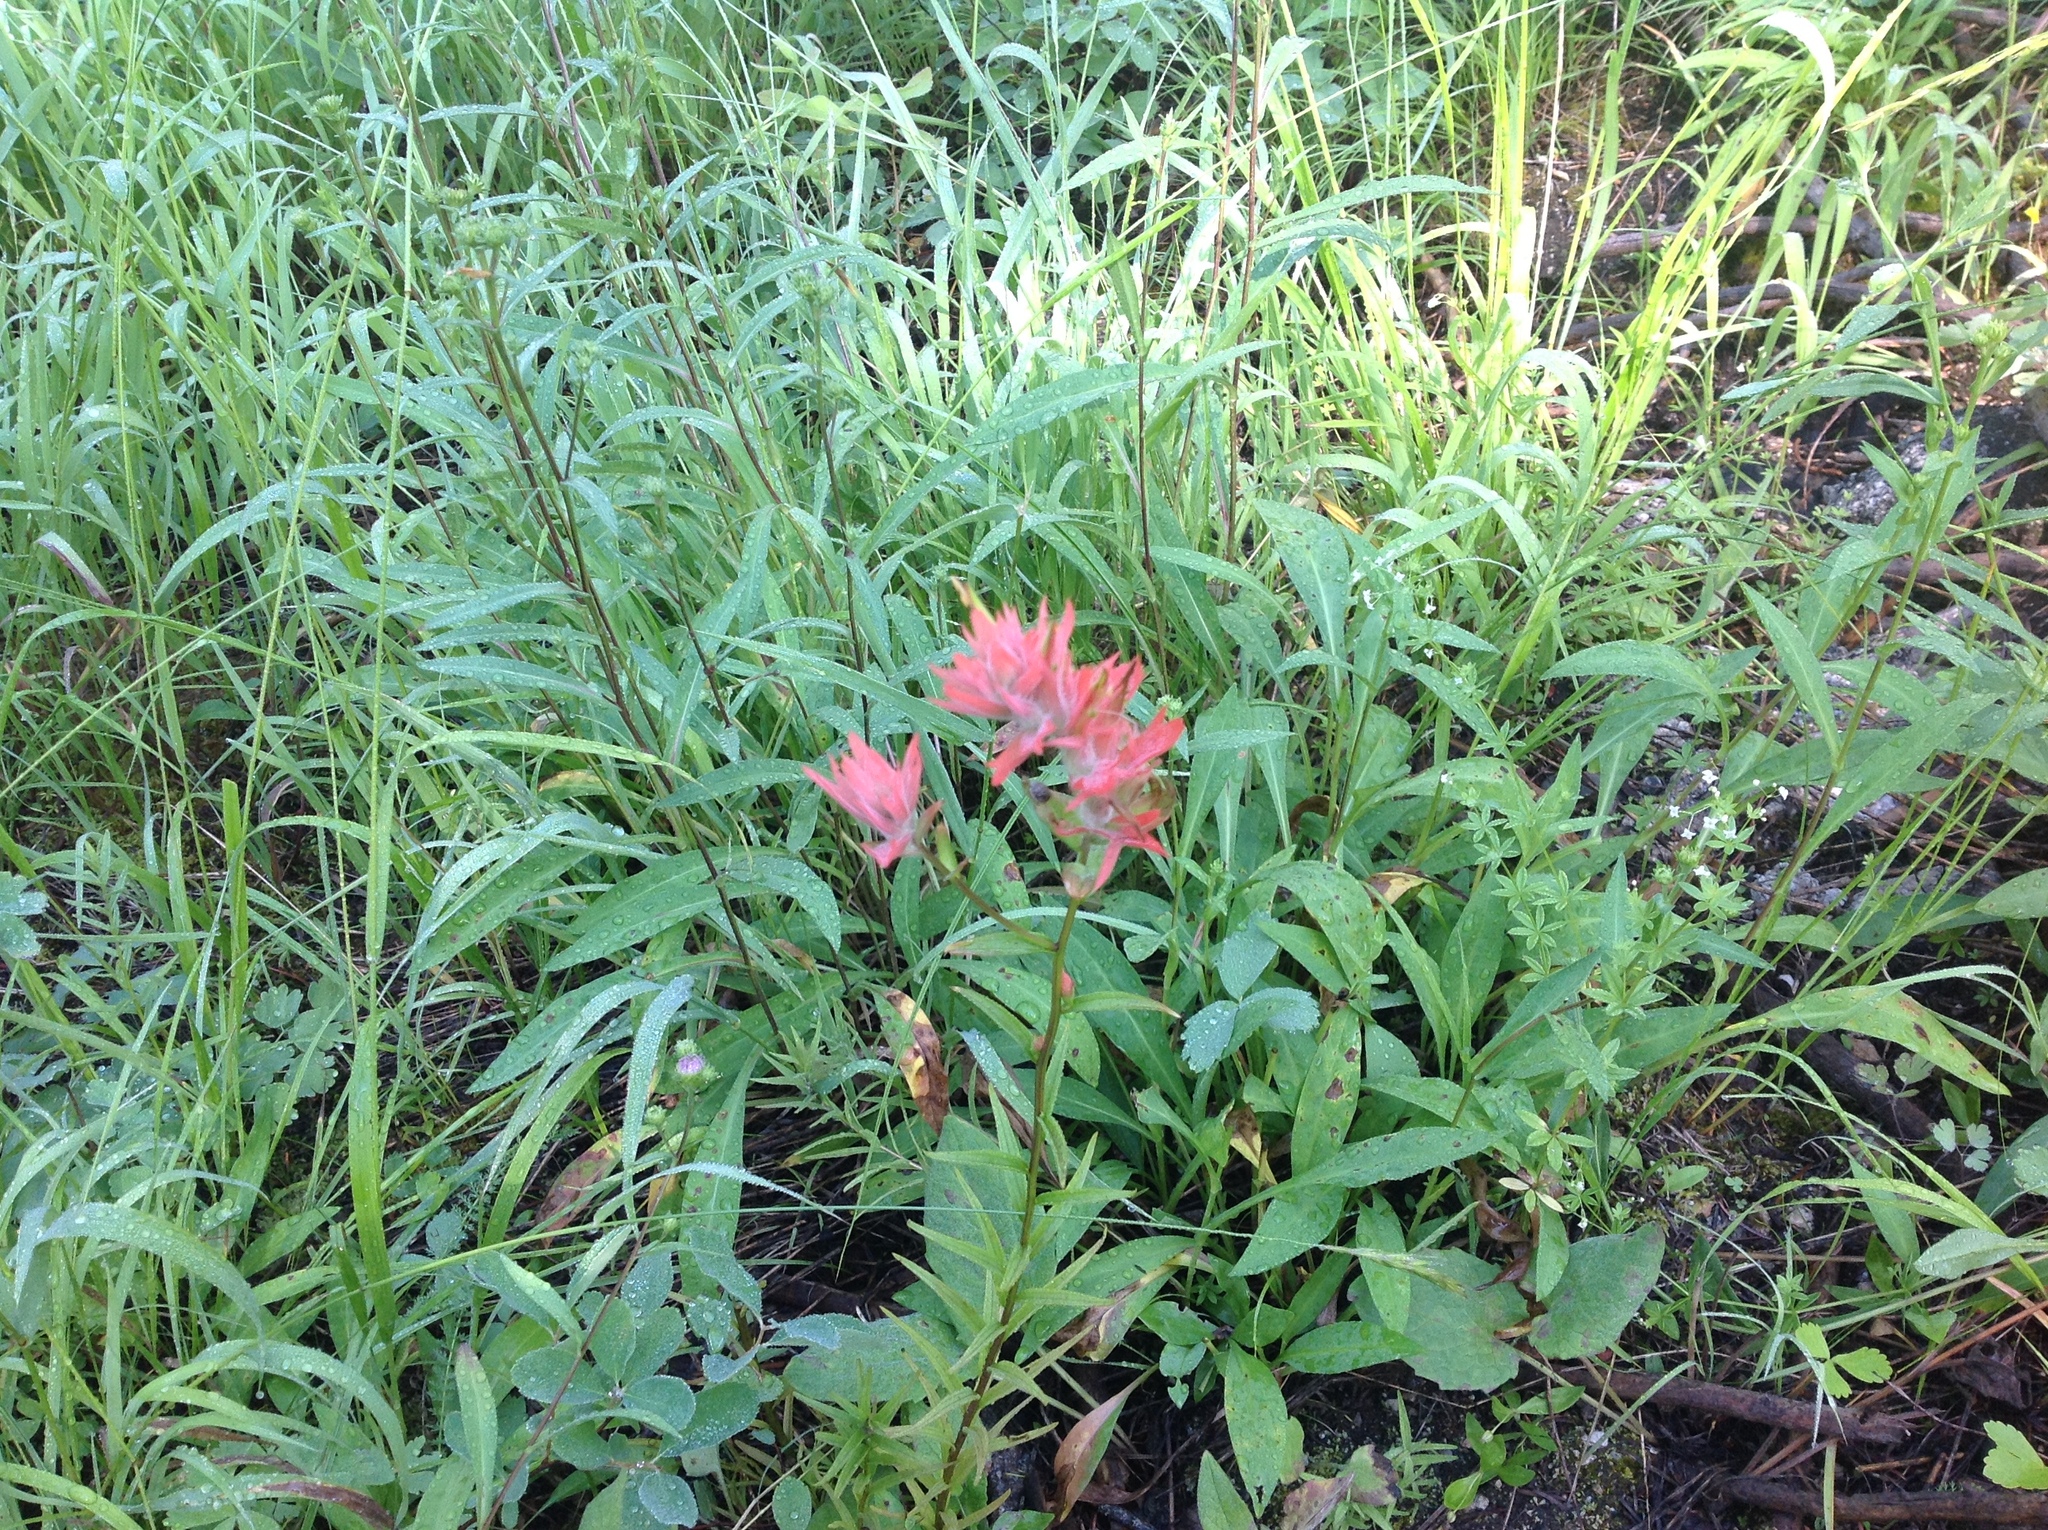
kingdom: Plantae
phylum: Tracheophyta
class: Magnoliopsida
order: Lamiales
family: Orobanchaceae
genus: Castilleja
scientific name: Castilleja miniata
